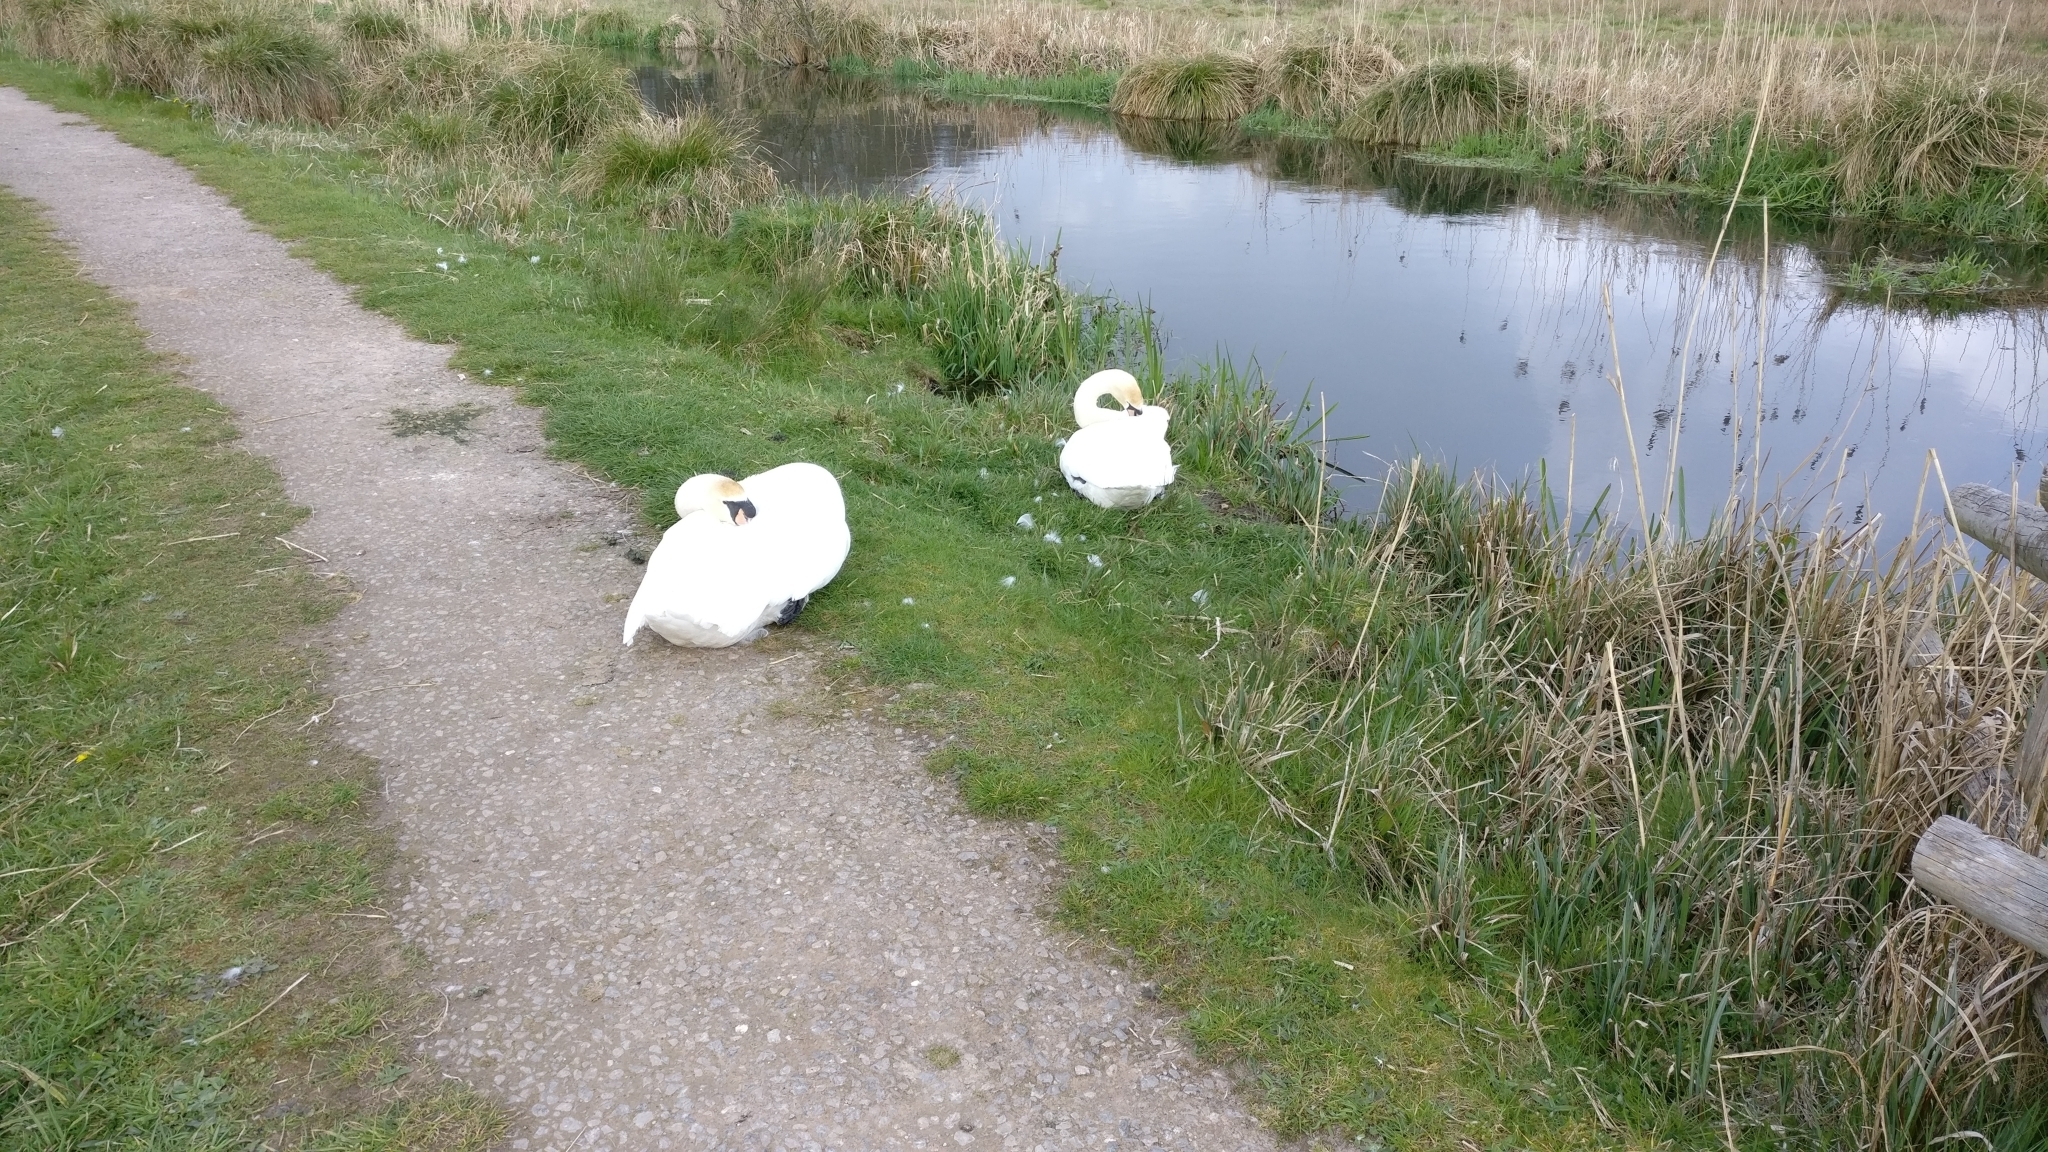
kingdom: Animalia
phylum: Chordata
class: Aves
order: Anseriformes
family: Anatidae
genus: Cygnus
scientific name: Cygnus olor
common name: Mute swan
